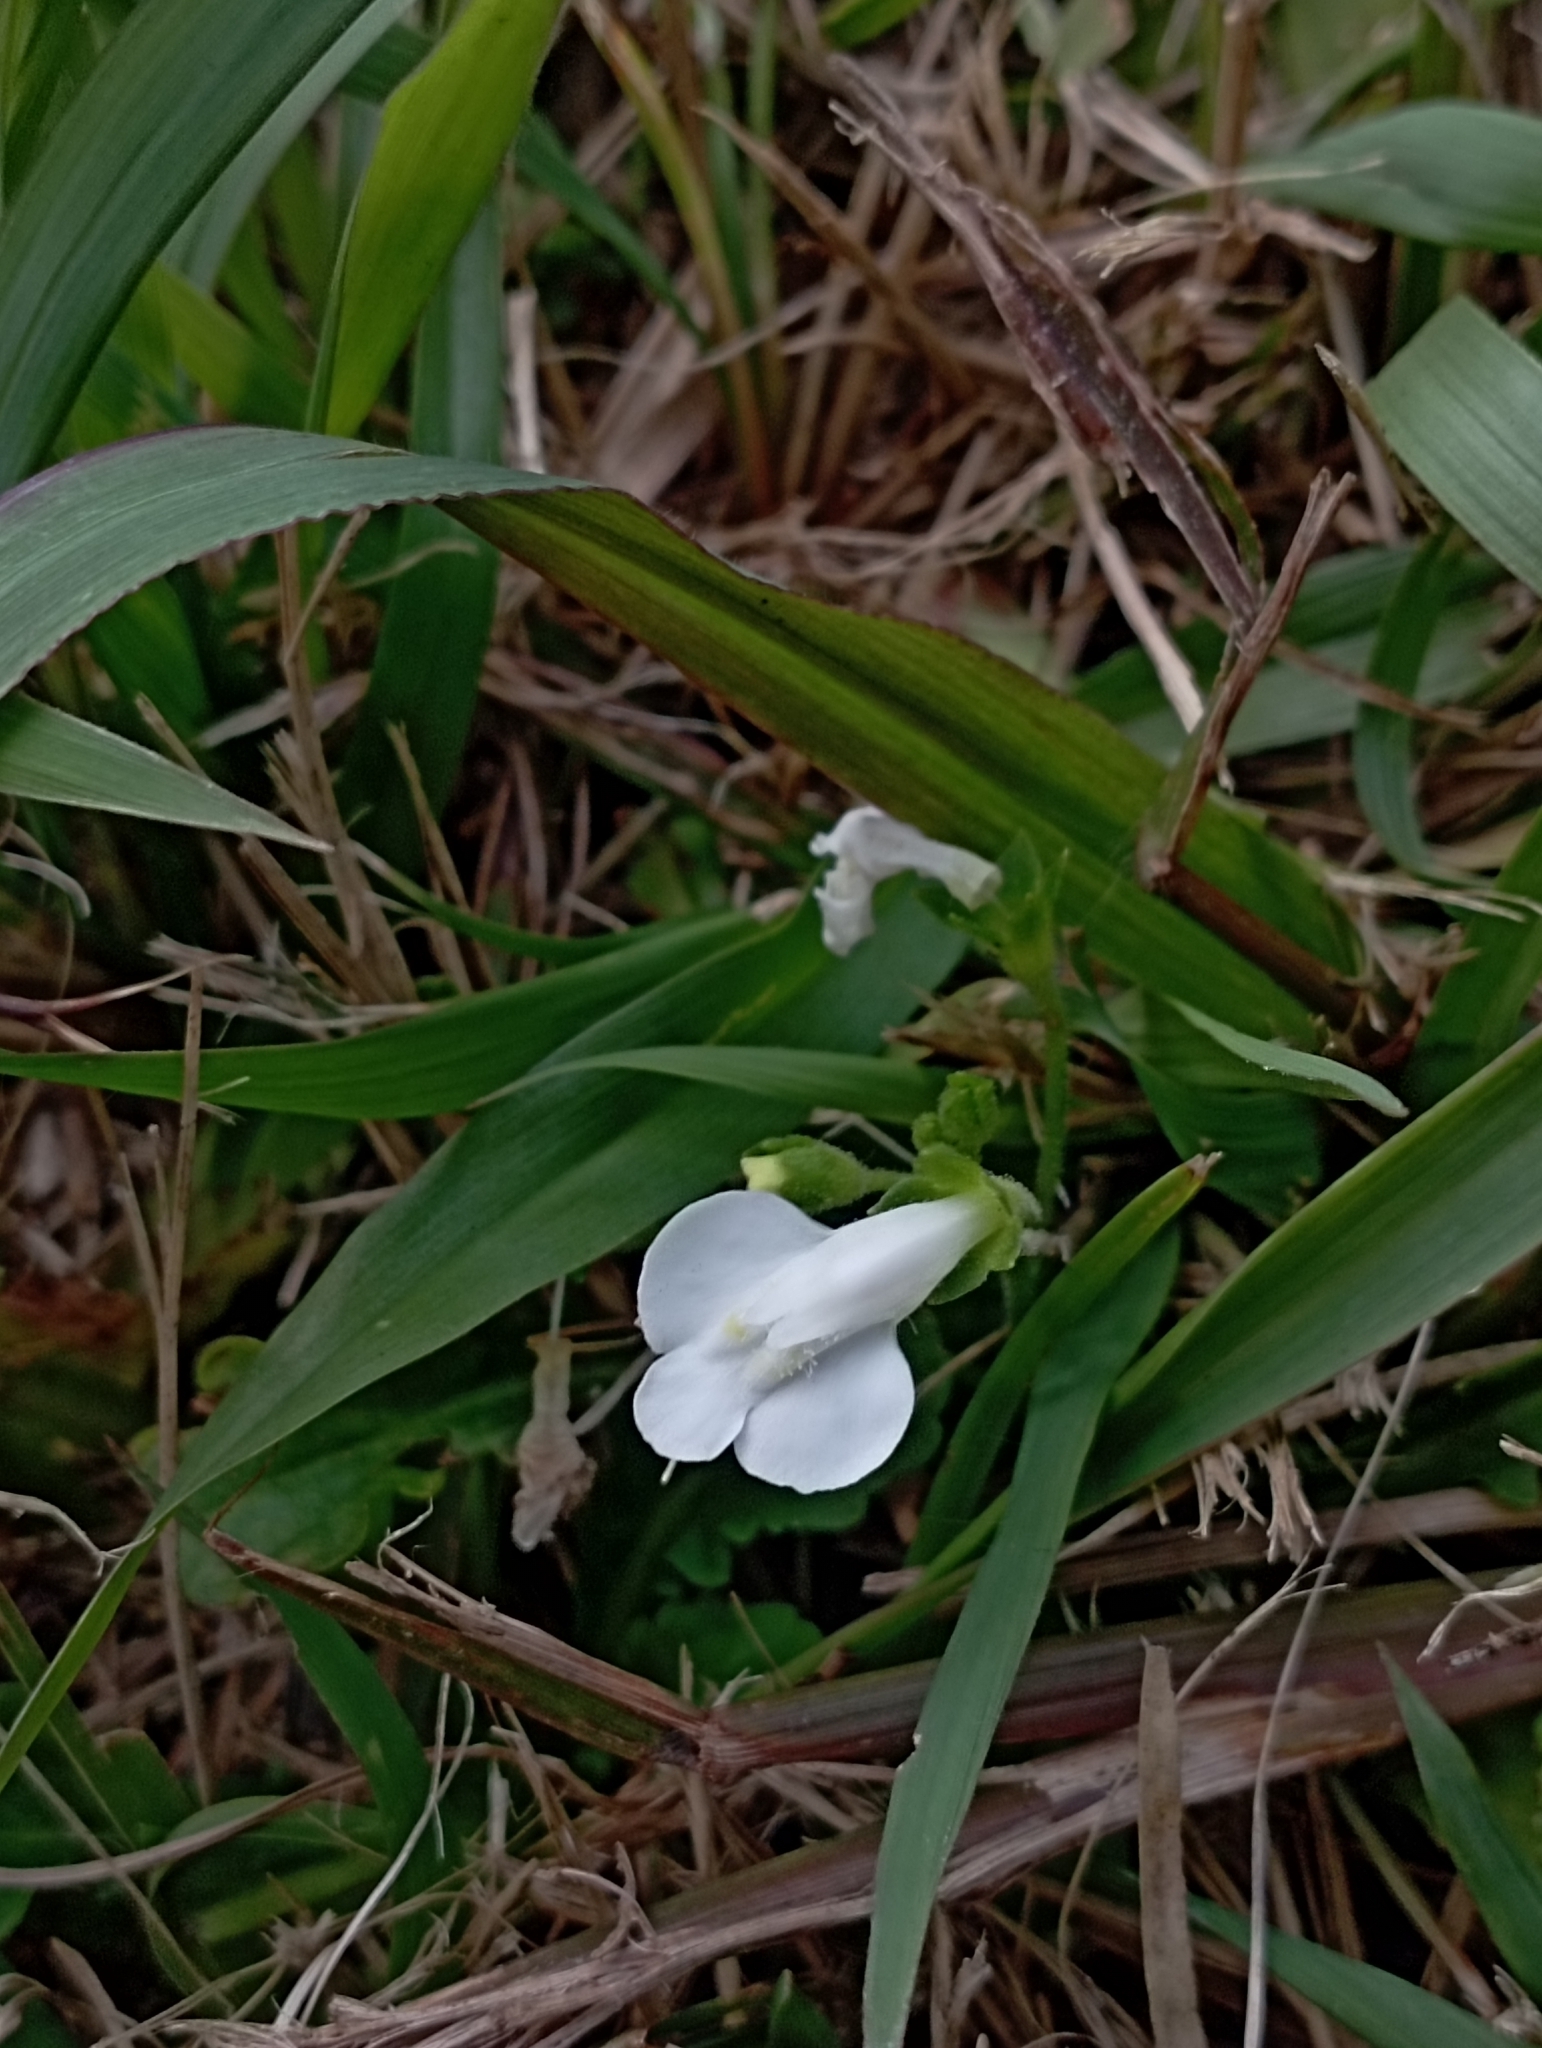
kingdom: Plantae
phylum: Tracheophyta
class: Magnoliopsida
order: Lamiales
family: Mazaceae
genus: Mazus
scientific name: Mazus fauriei
